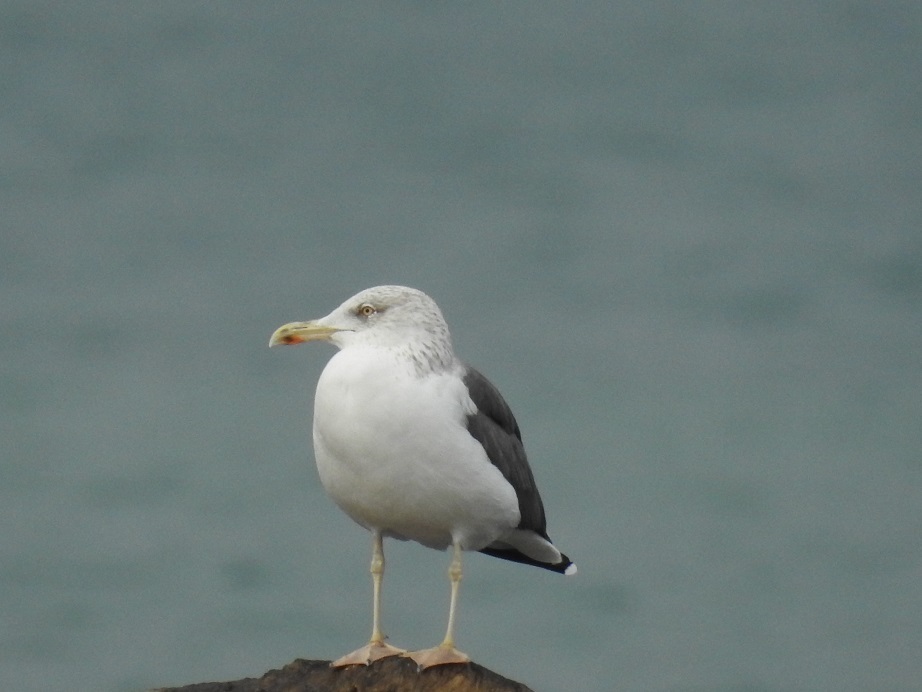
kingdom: Animalia
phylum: Chordata
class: Aves
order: Charadriiformes
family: Laridae
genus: Larus
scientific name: Larus fuscus
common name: Lesser black-backed gull
